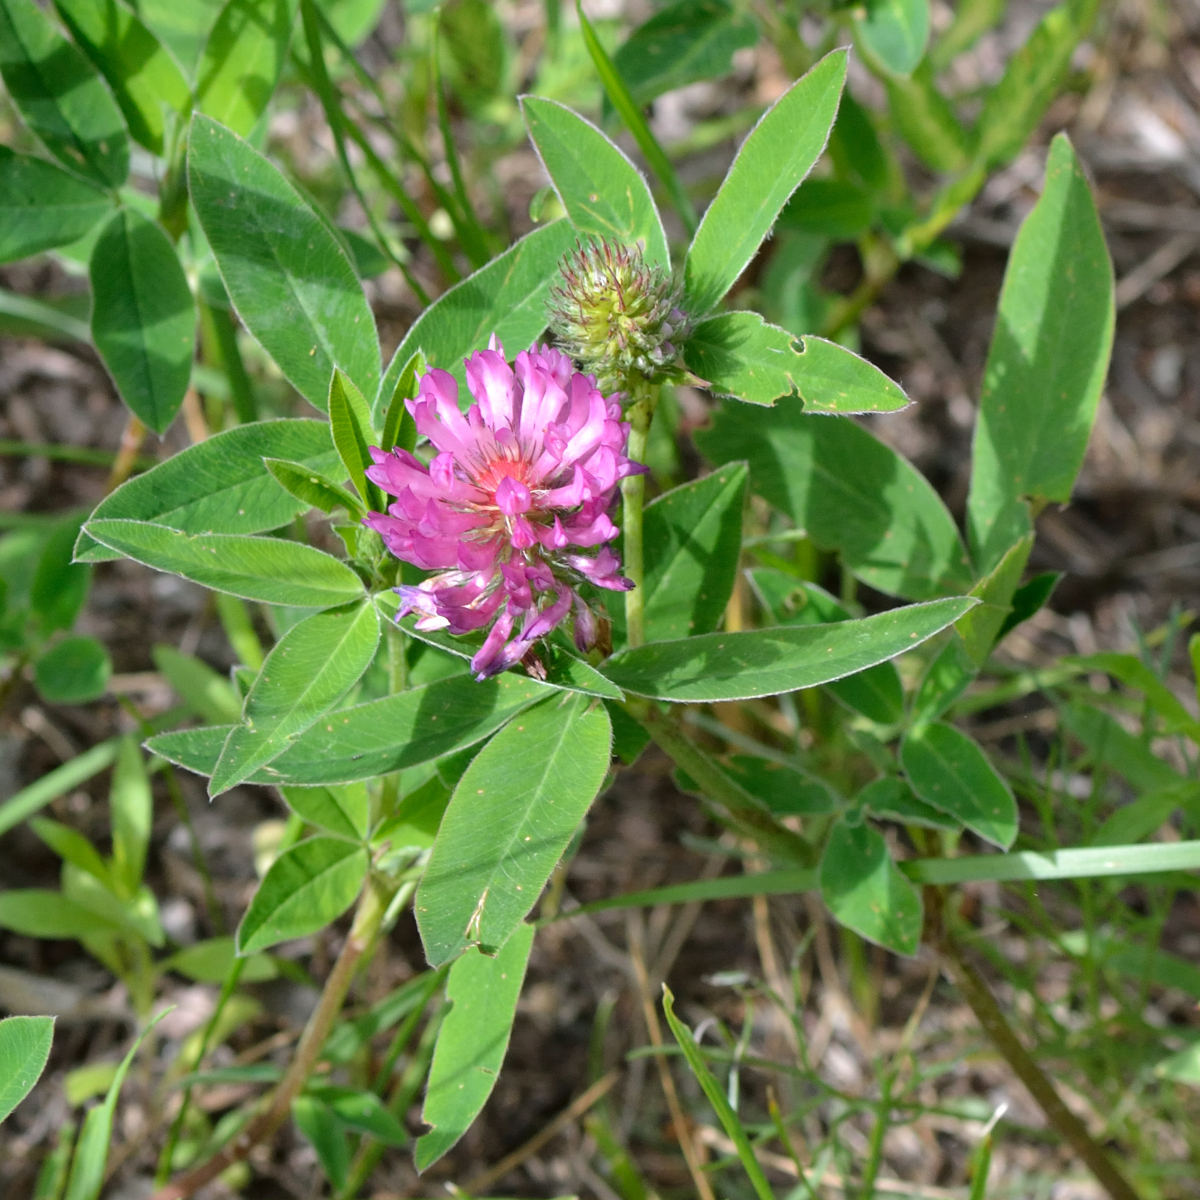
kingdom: Plantae
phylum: Tracheophyta
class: Magnoliopsida
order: Fabales
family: Fabaceae
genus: Trifolium
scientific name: Trifolium medium
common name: Zigzag clover
